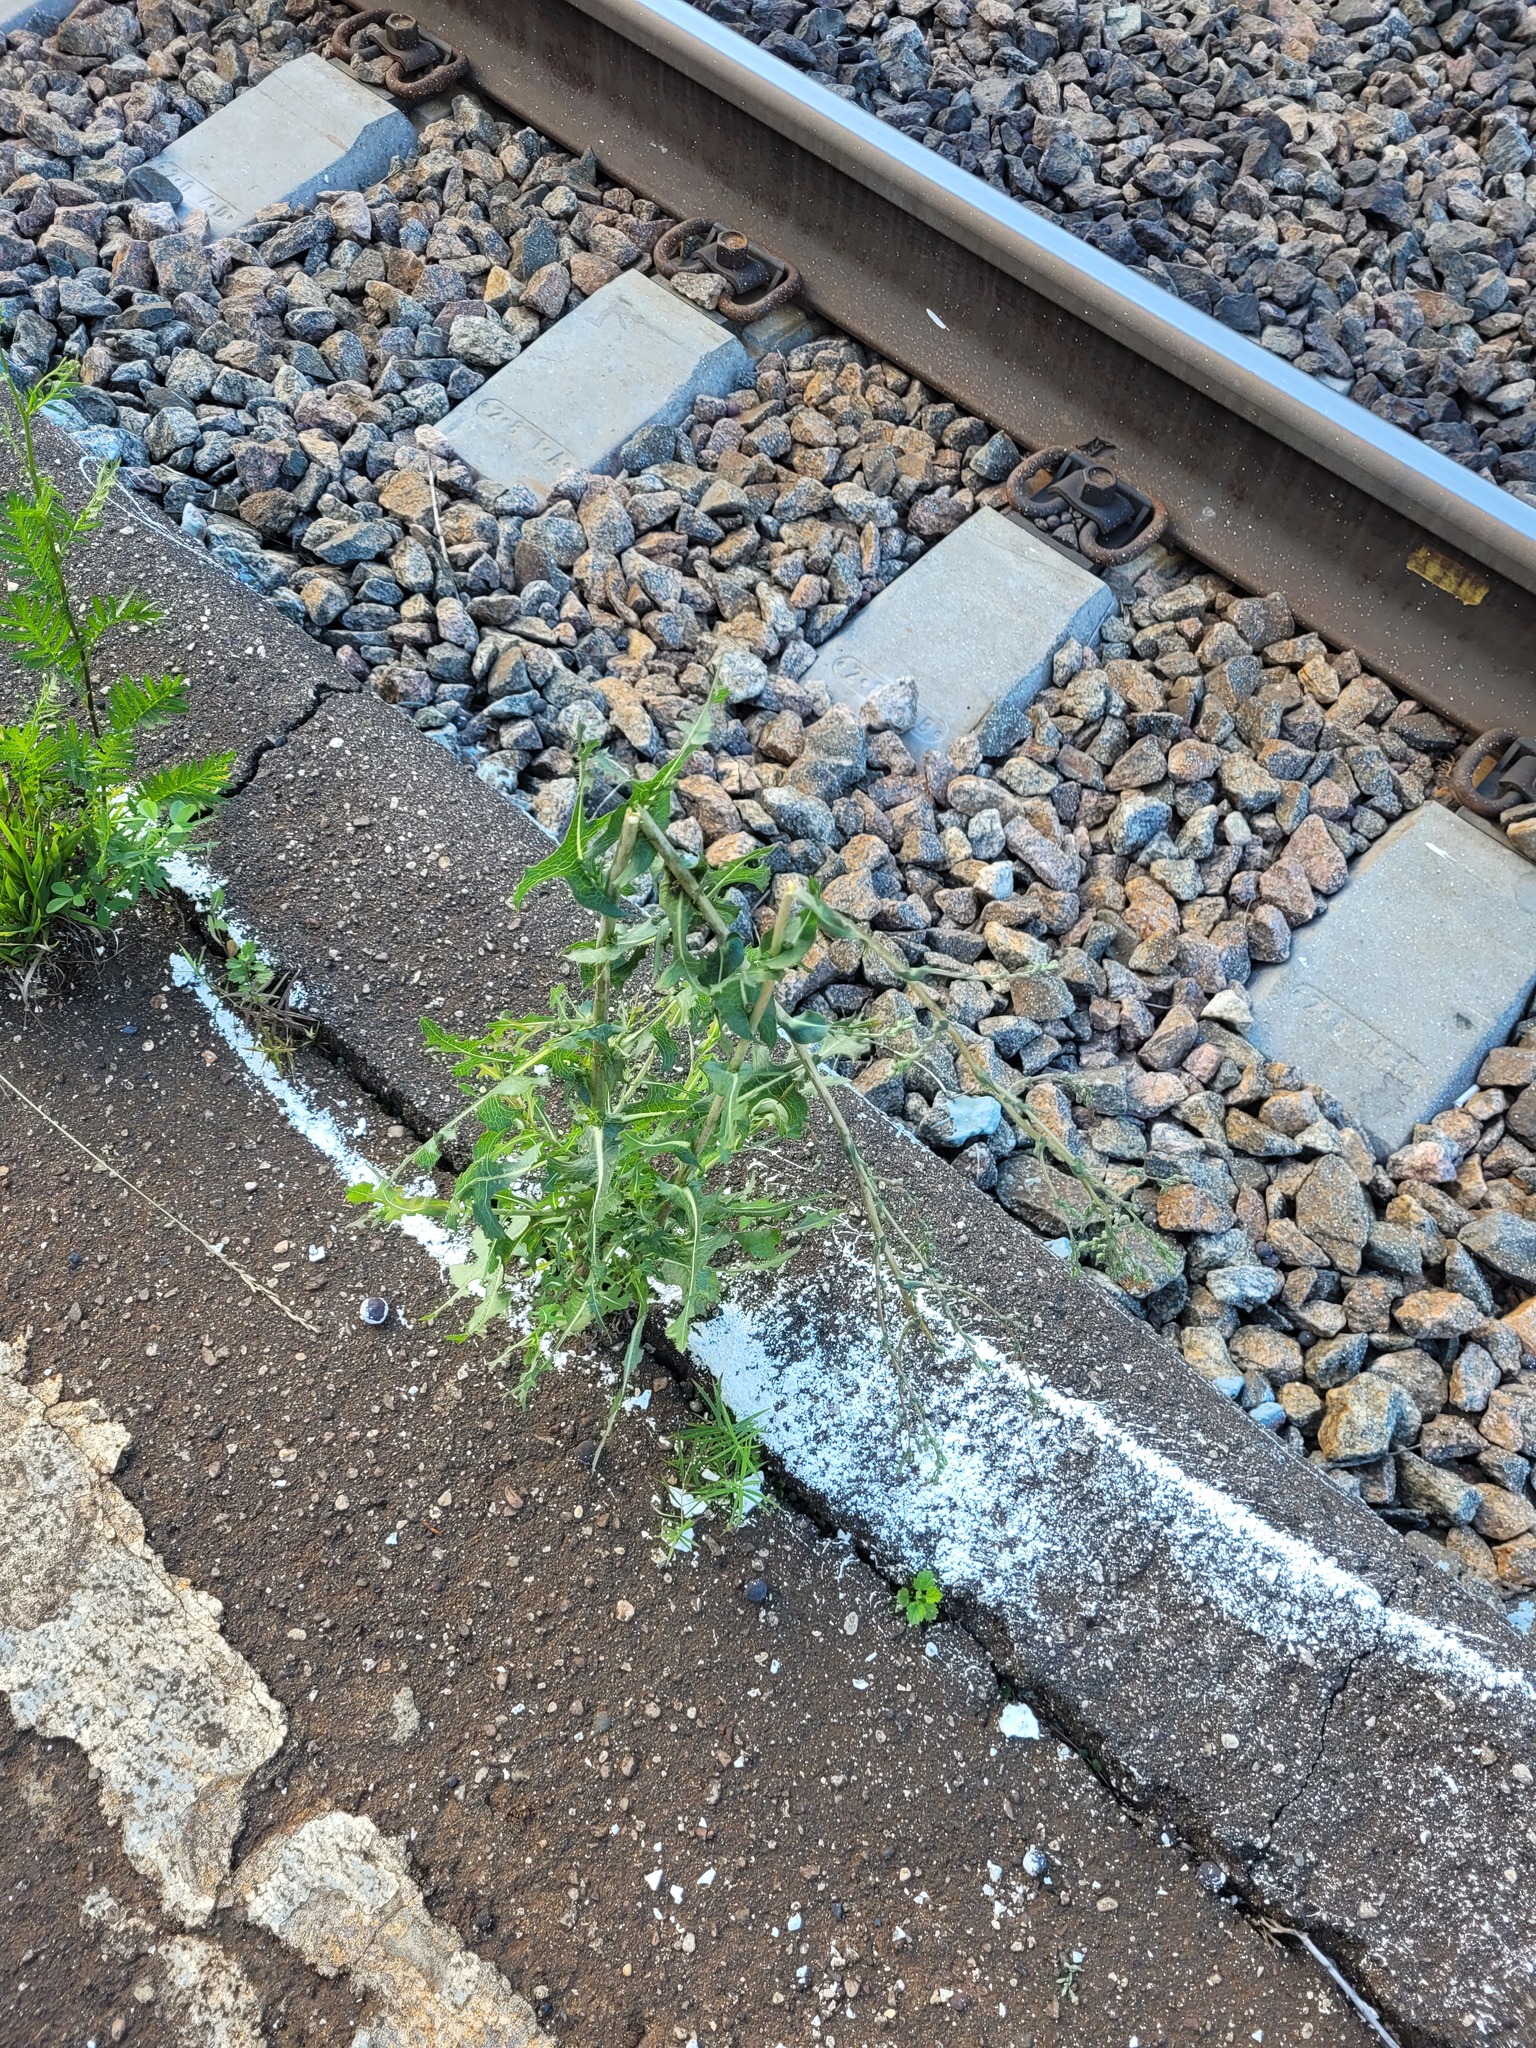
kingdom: Plantae
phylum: Tracheophyta
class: Magnoliopsida
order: Asterales
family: Asteraceae
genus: Lactuca
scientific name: Lactuca serriola
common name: Prickly lettuce
